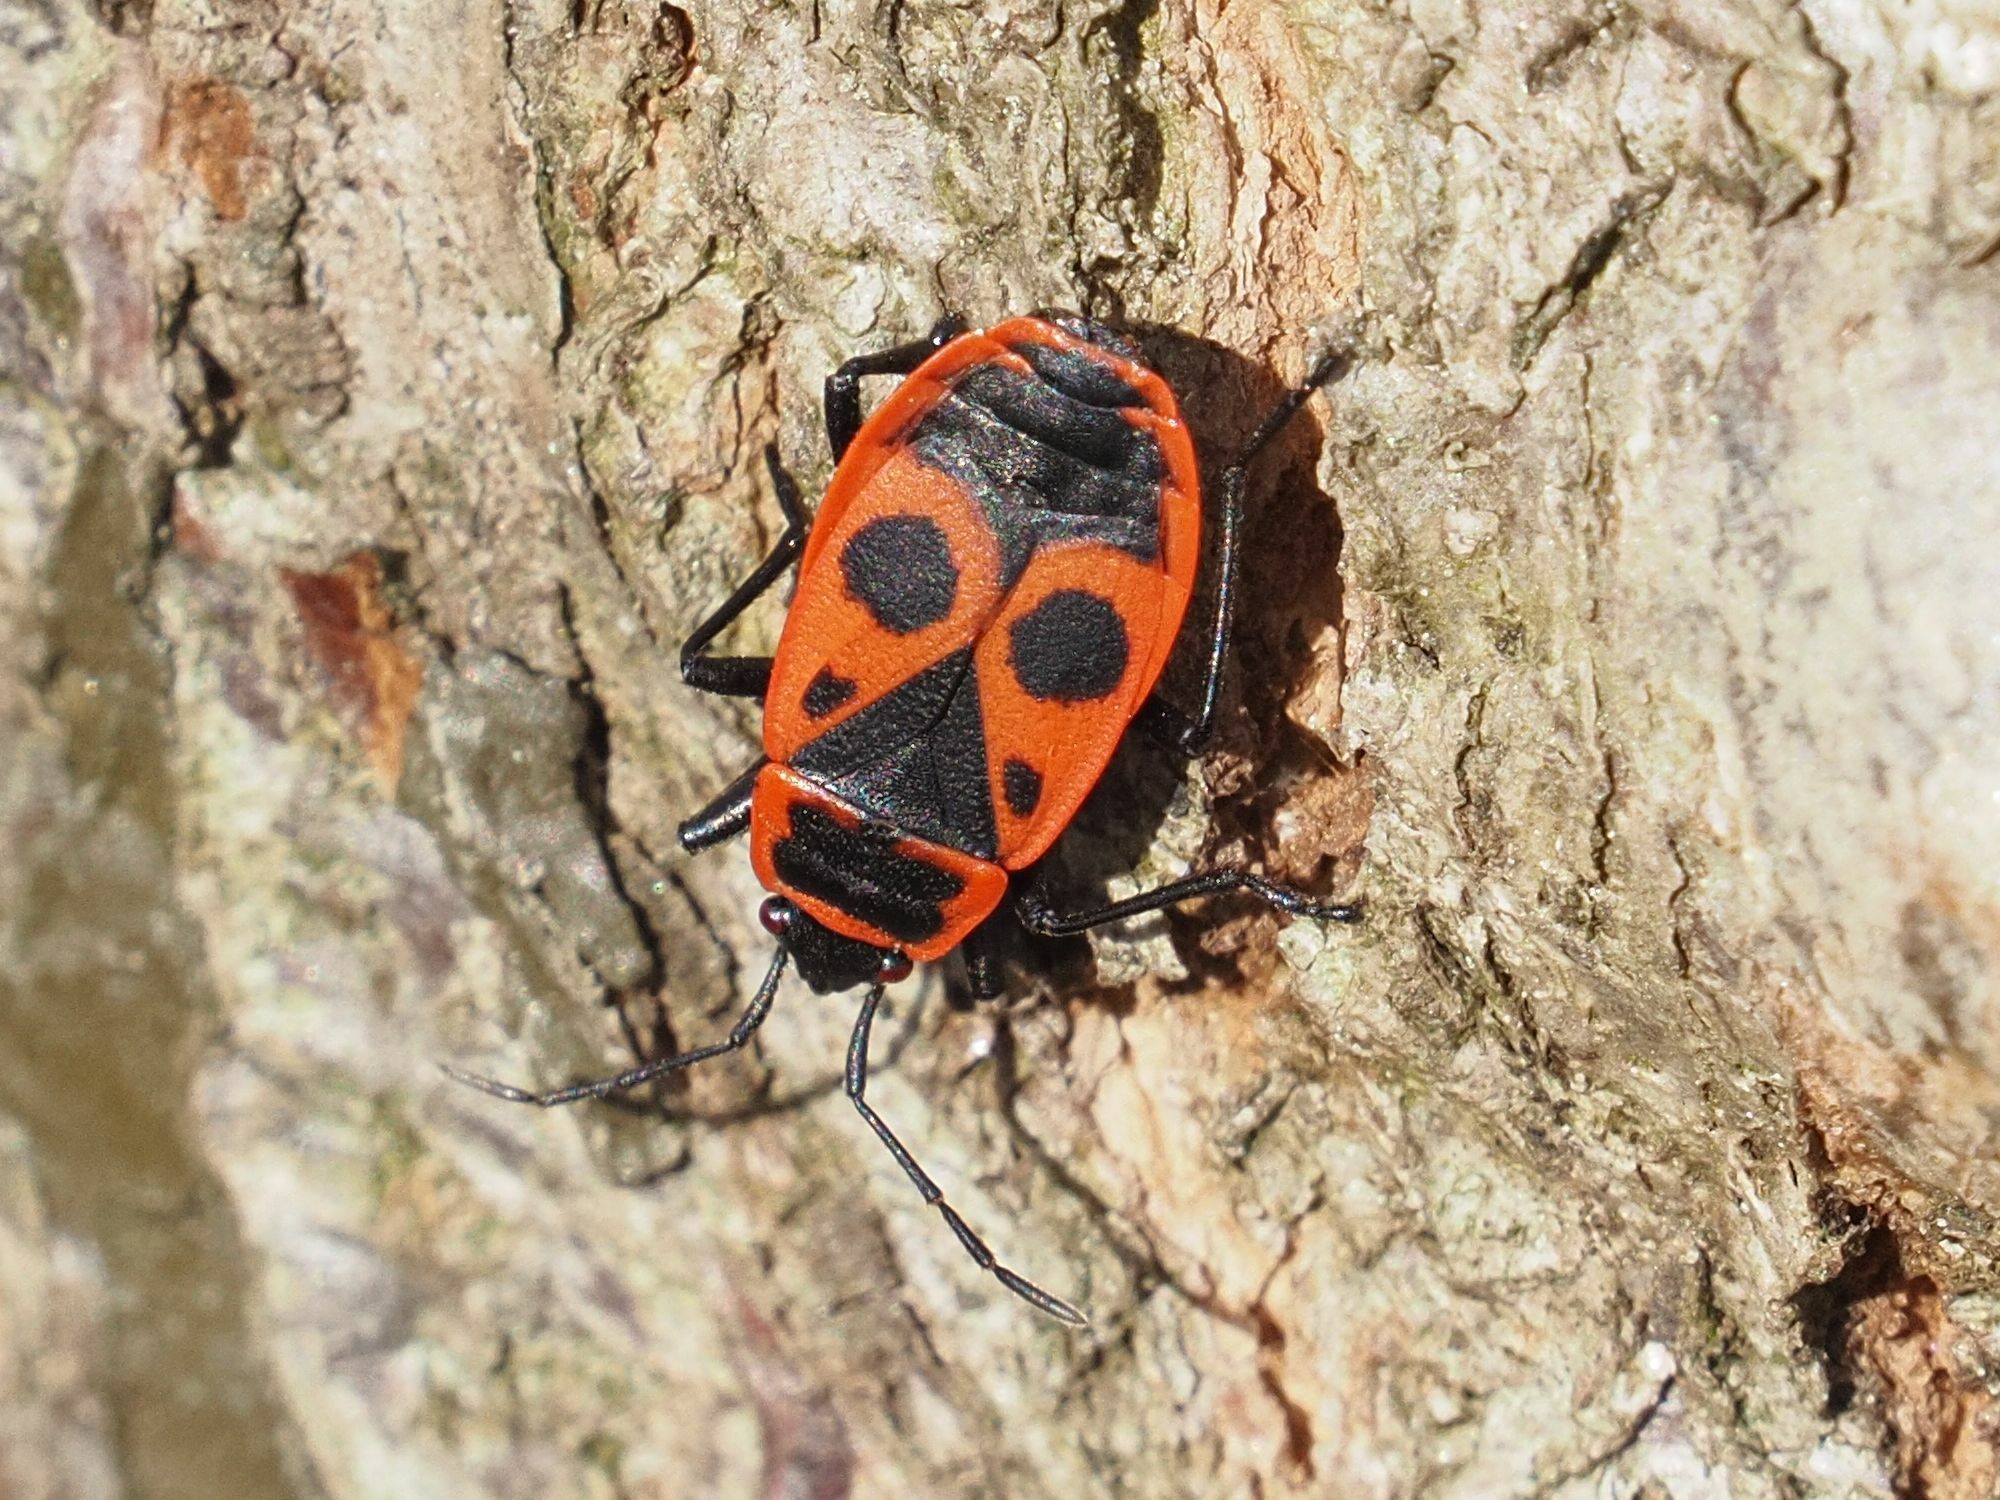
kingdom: Animalia
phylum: Arthropoda
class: Insecta
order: Hemiptera
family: Pyrrhocoridae
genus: Pyrrhocoris
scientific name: Pyrrhocoris apterus
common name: Firebug
